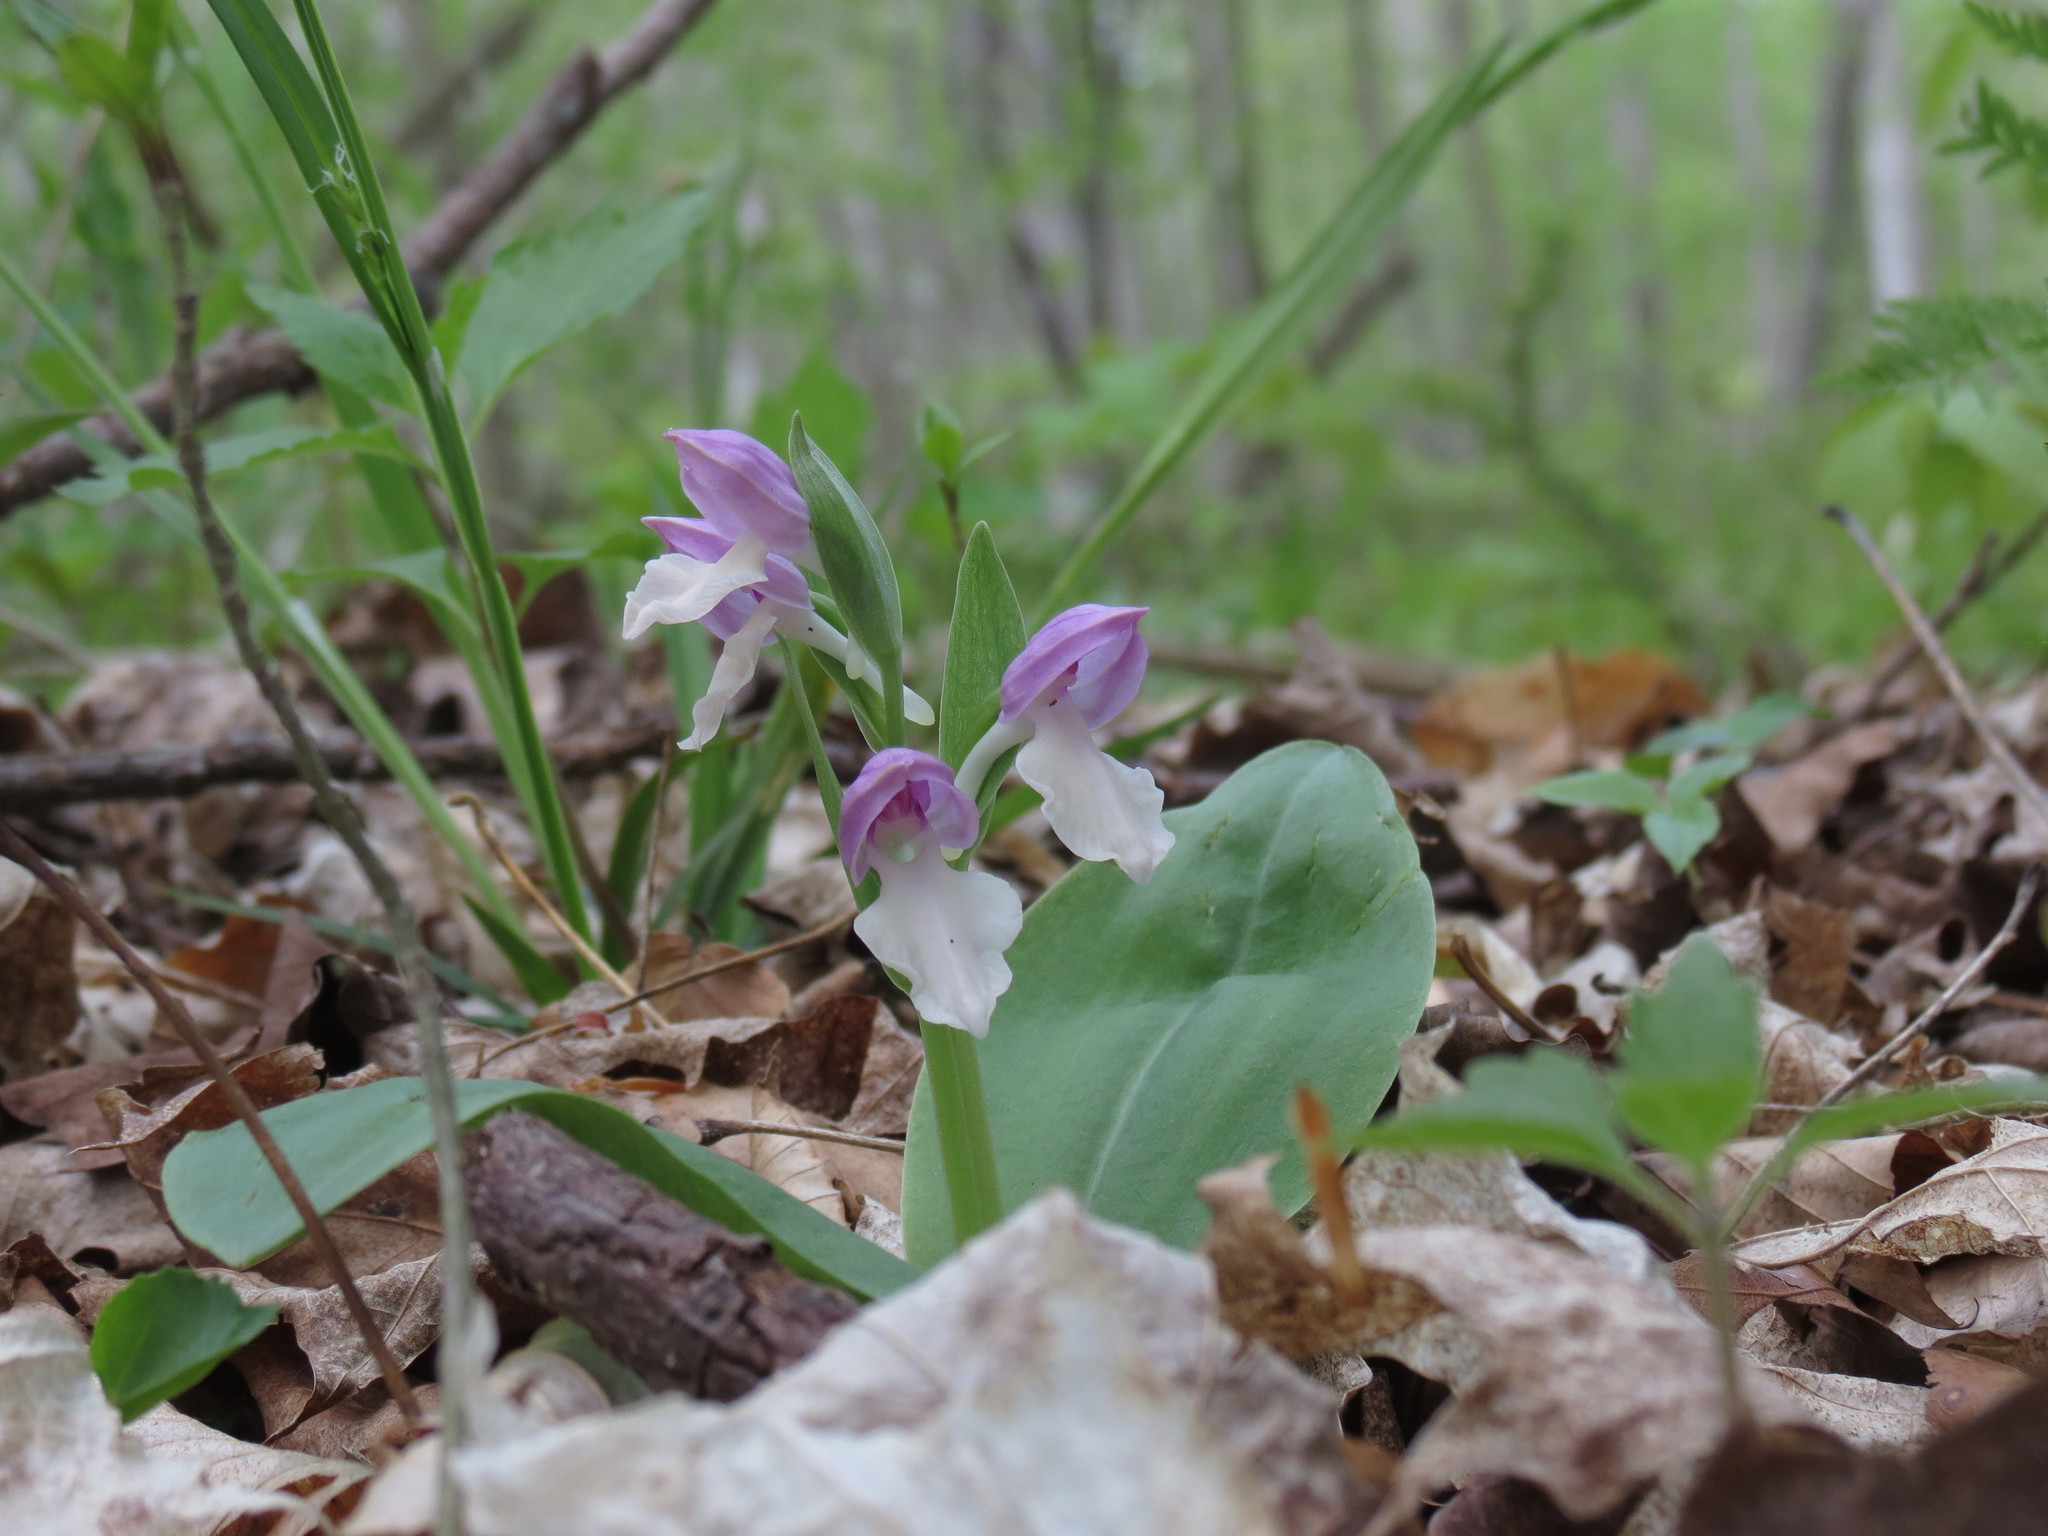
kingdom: Plantae
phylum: Tracheophyta
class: Liliopsida
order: Asparagales
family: Orchidaceae
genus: Galearis
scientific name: Galearis spectabilis
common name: Purple-hooded orchis
